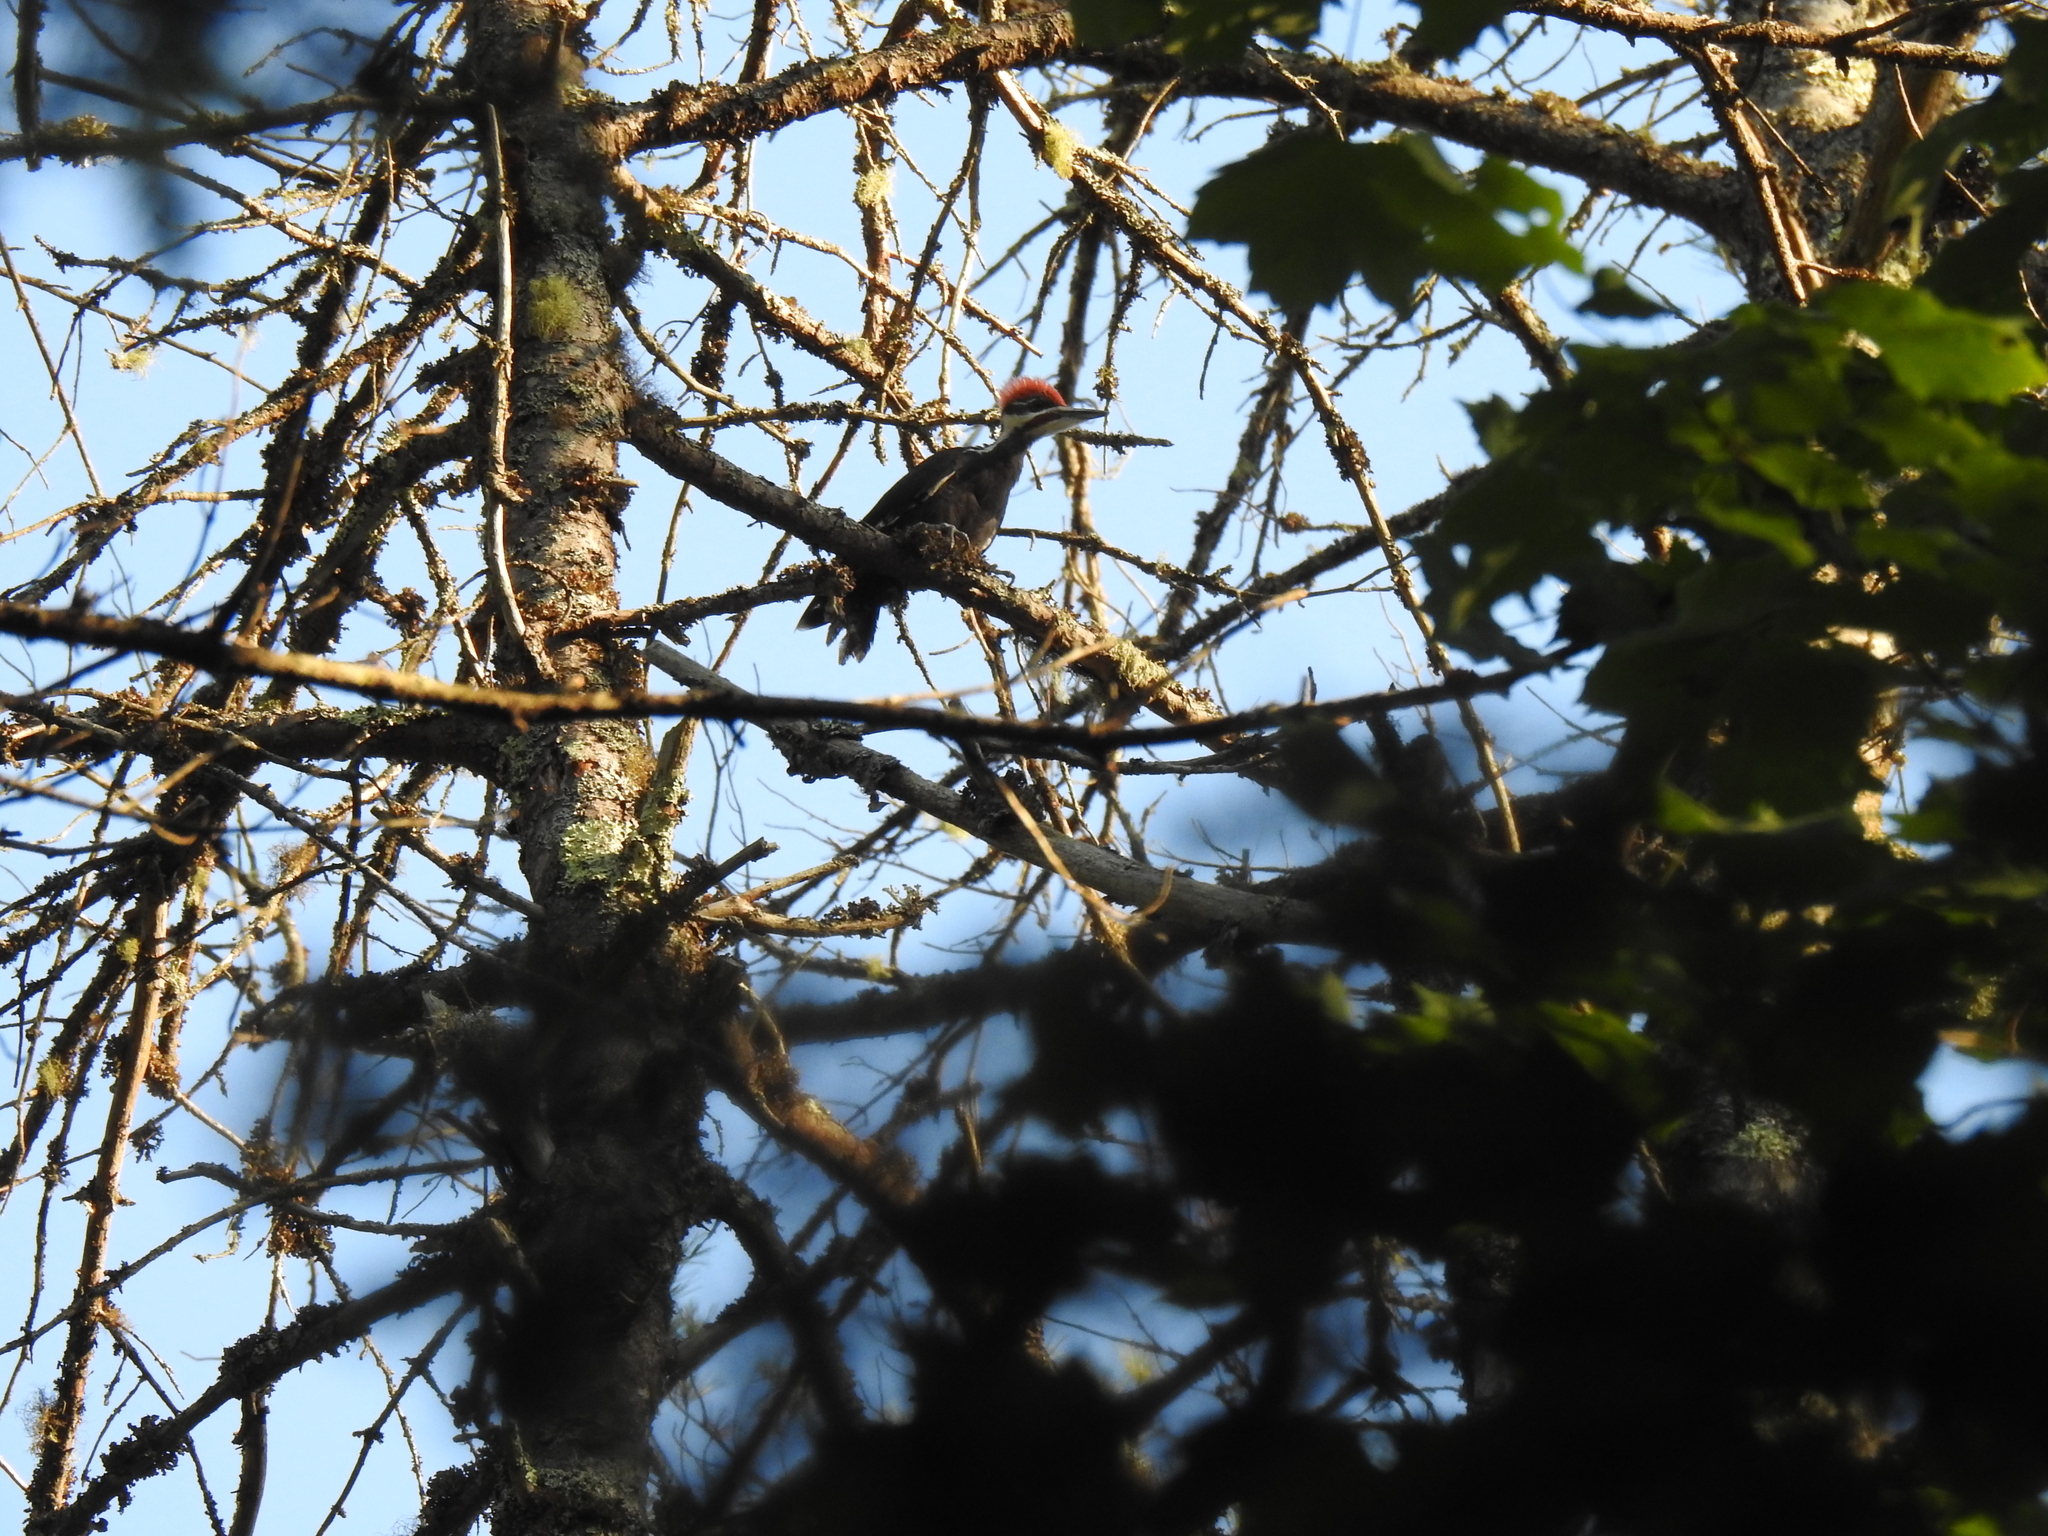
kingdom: Animalia
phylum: Chordata
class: Aves
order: Piciformes
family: Picidae
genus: Dryocopus
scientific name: Dryocopus pileatus
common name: Pileated woodpecker
